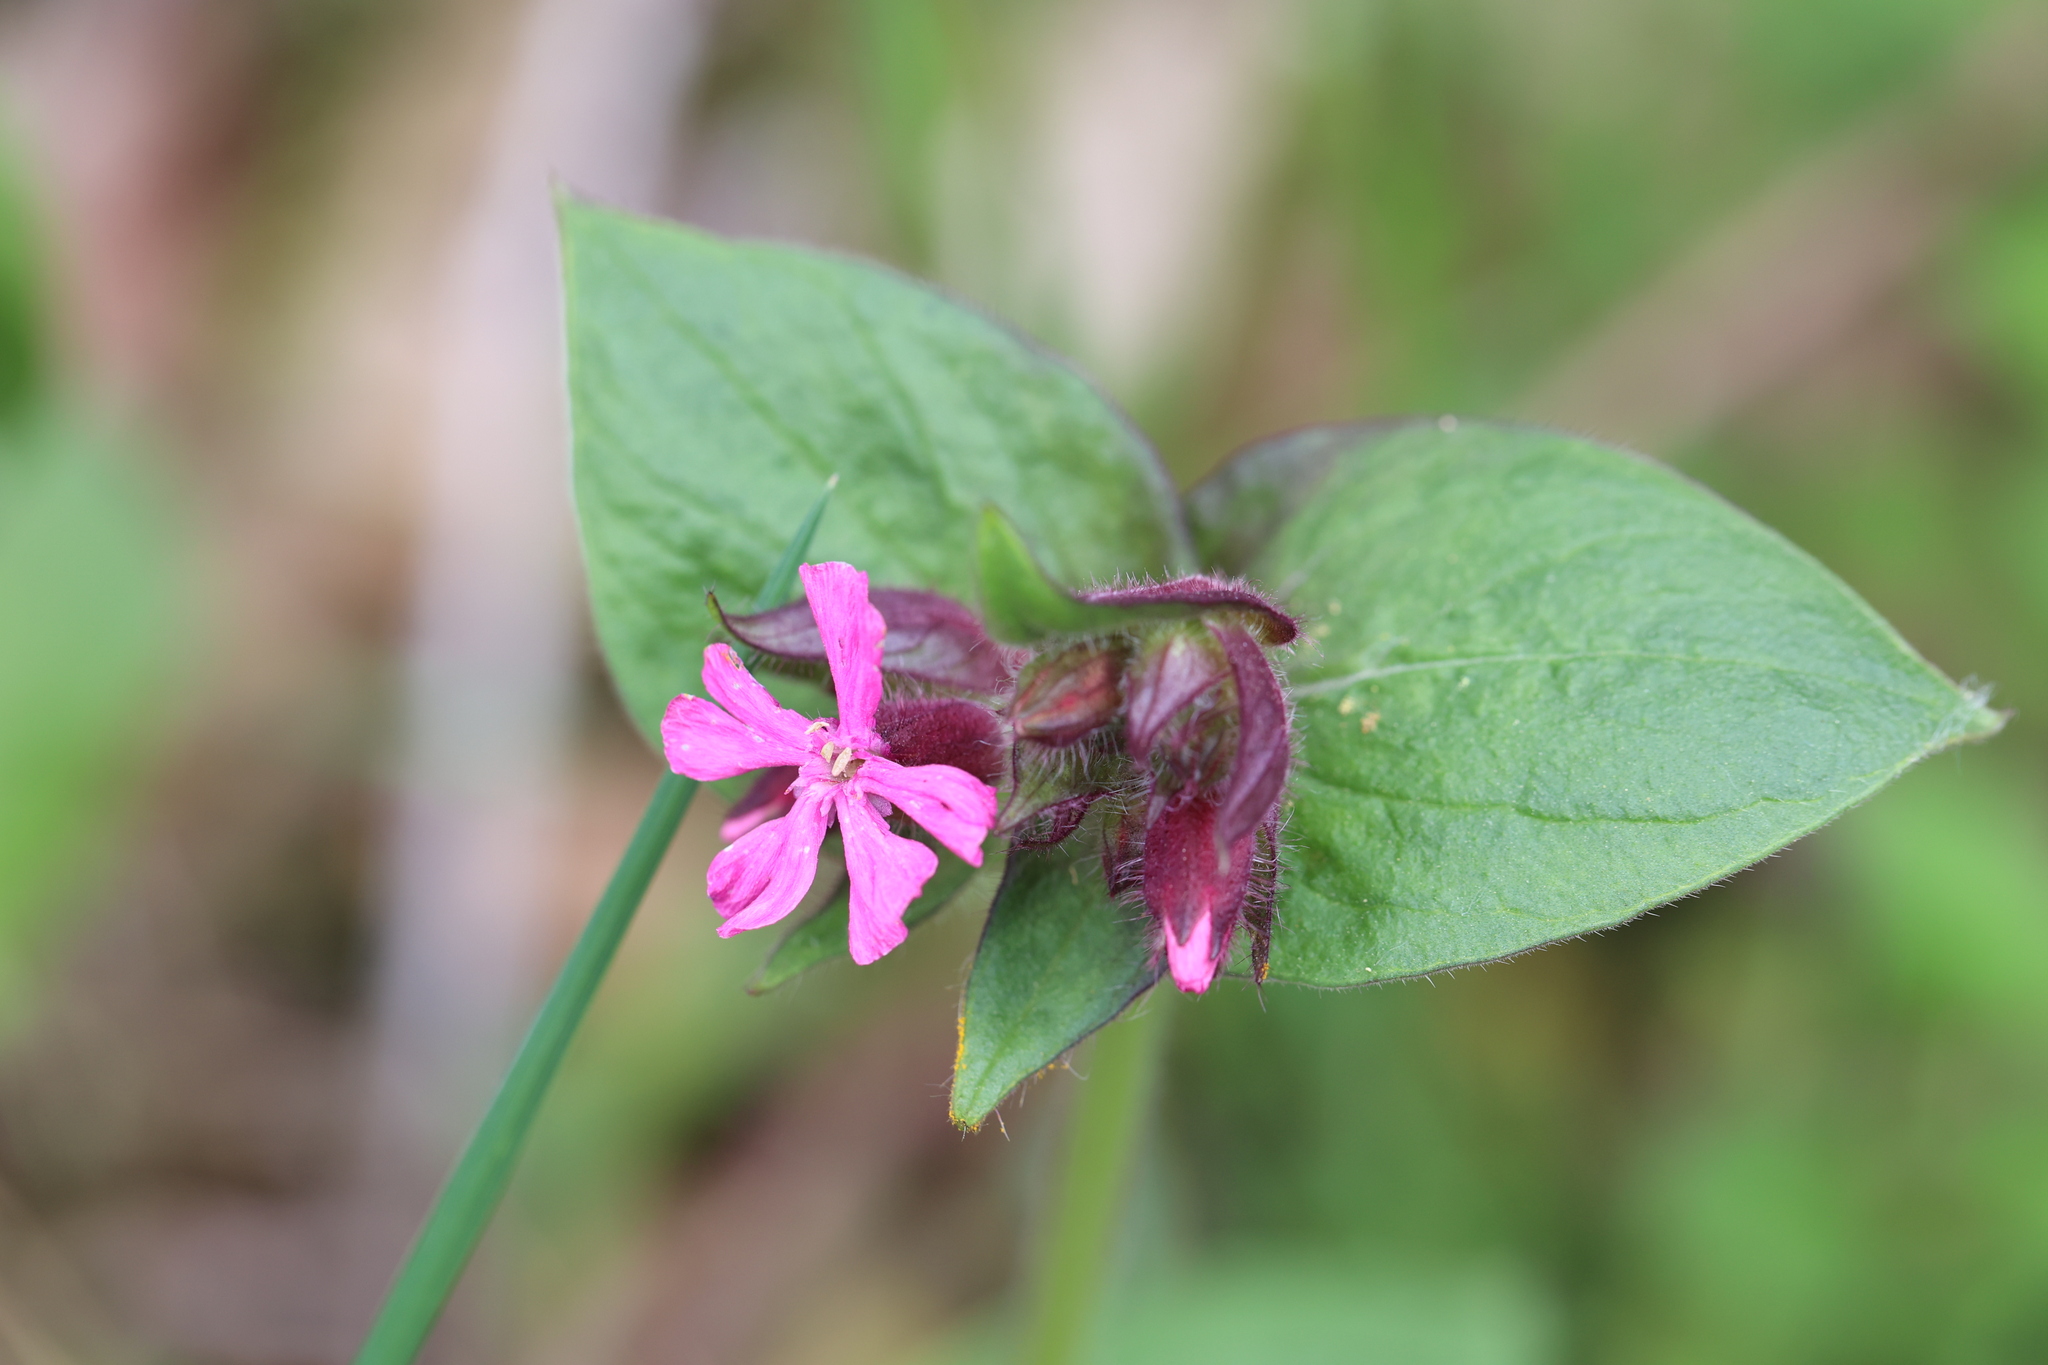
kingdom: Plantae
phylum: Tracheophyta
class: Magnoliopsida
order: Caryophyllales
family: Caryophyllaceae
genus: Silene
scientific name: Silene dioica
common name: Red campion
